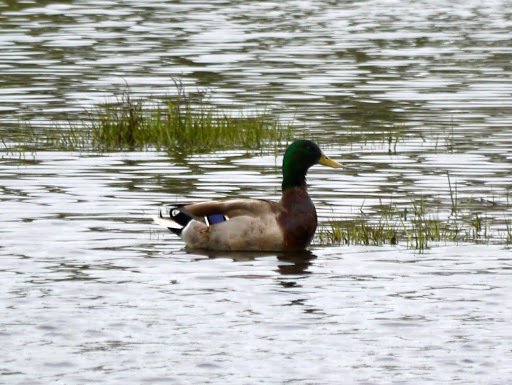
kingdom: Animalia
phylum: Chordata
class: Aves
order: Anseriformes
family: Anatidae
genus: Anas
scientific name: Anas platyrhynchos
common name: Mallard
